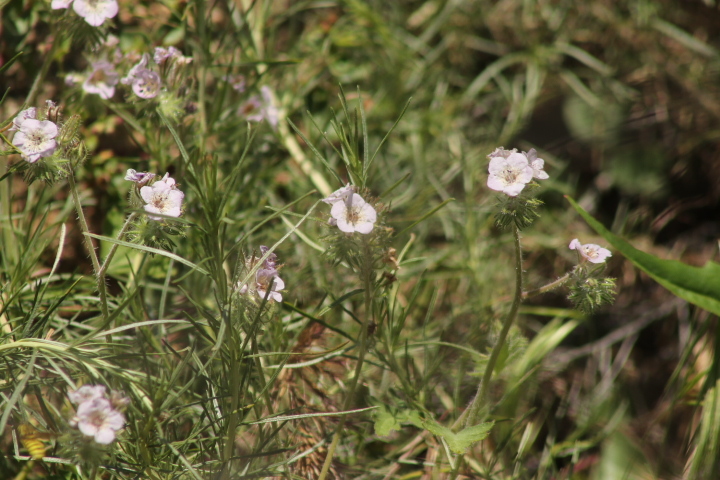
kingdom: Plantae
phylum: Tracheophyta
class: Magnoliopsida
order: Boraginales
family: Hydrophyllaceae
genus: Phacelia
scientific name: Phacelia cicutaria
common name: Caterpillar phacelia
